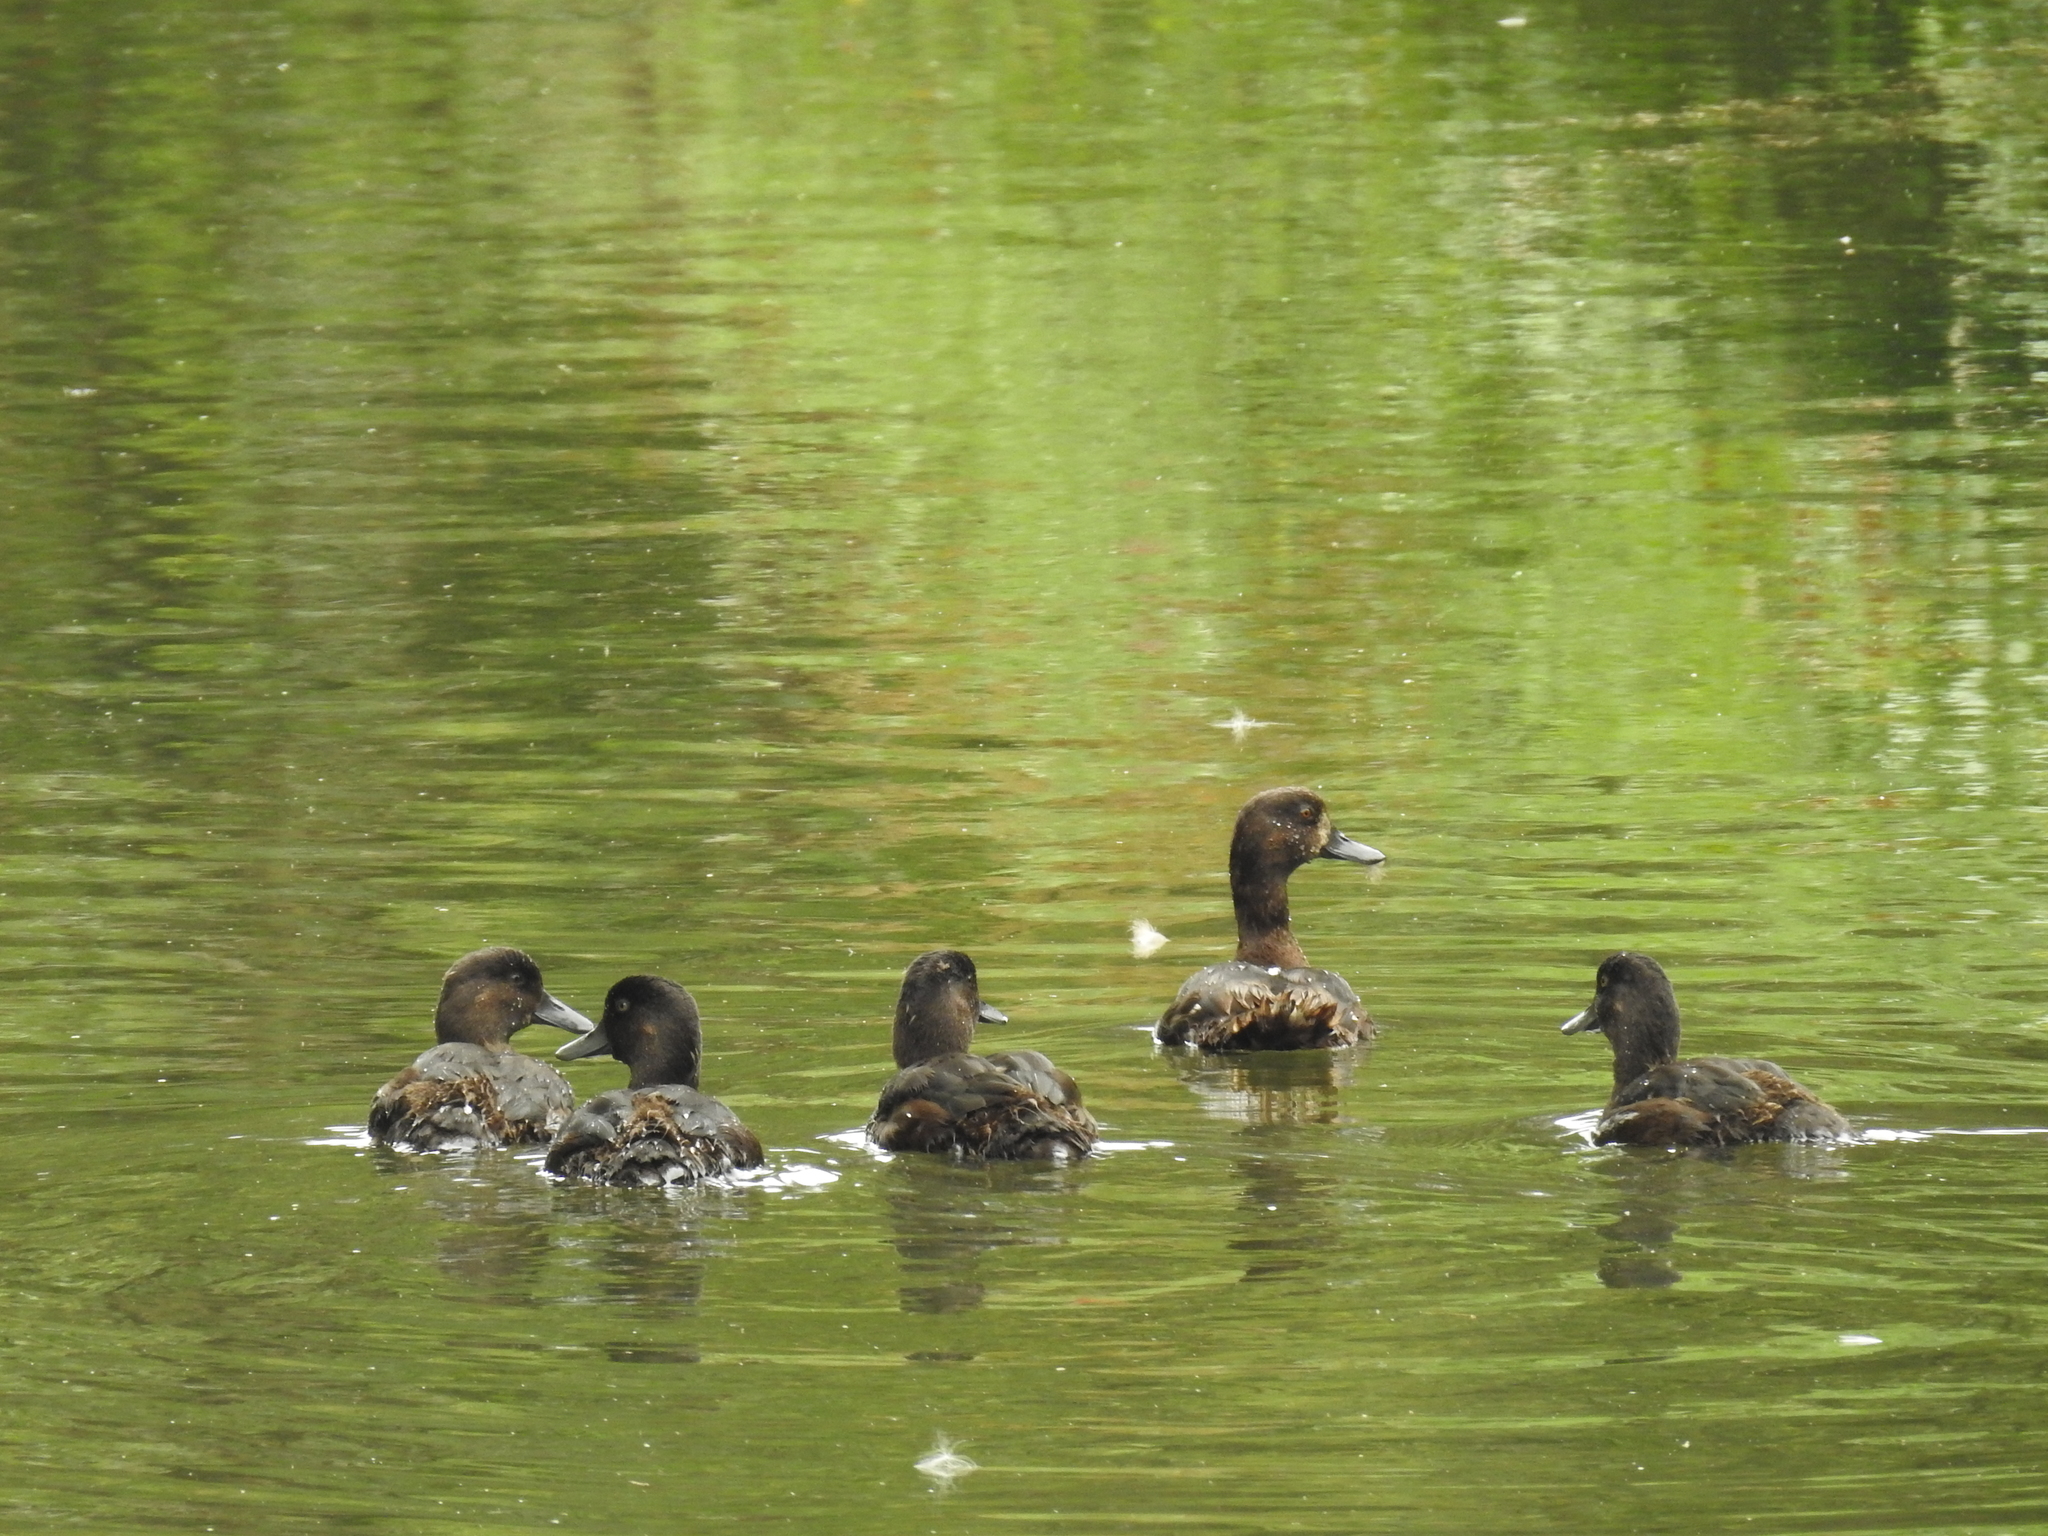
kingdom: Animalia
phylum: Chordata
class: Aves
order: Anseriformes
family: Anatidae
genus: Aythya
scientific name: Aythya novaeseelandiae
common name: New zealand scaup
